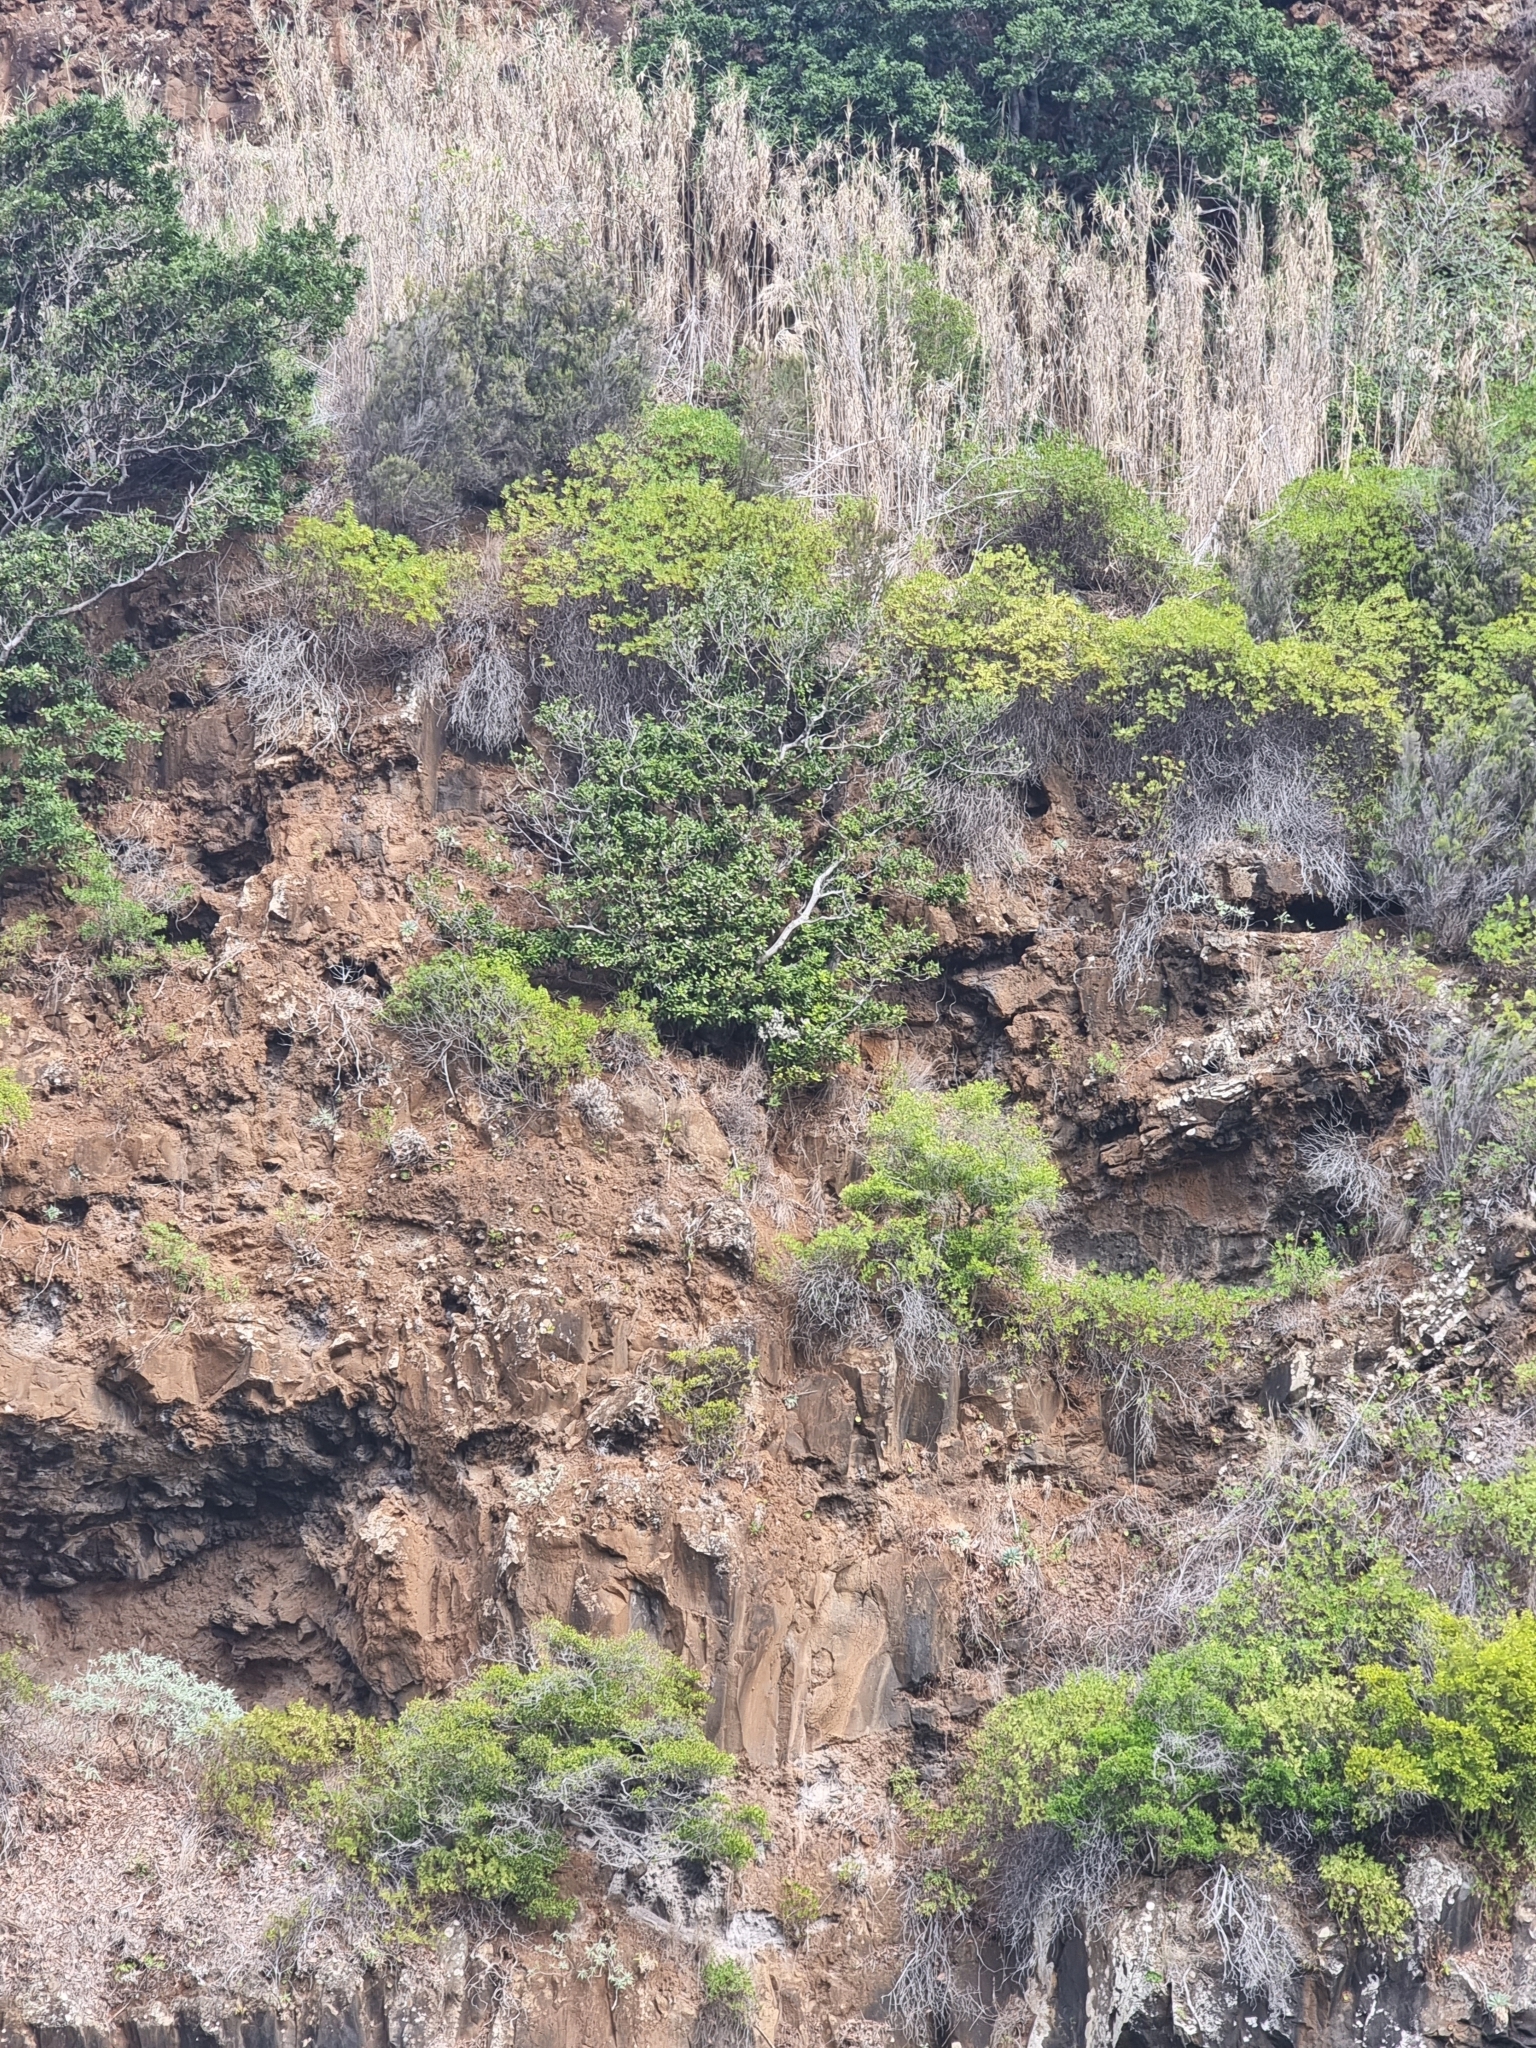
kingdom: Plantae
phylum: Tracheophyta
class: Magnoliopsida
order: Laurales
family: Lauraceae
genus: Apollonias
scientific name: Apollonias barbujana
